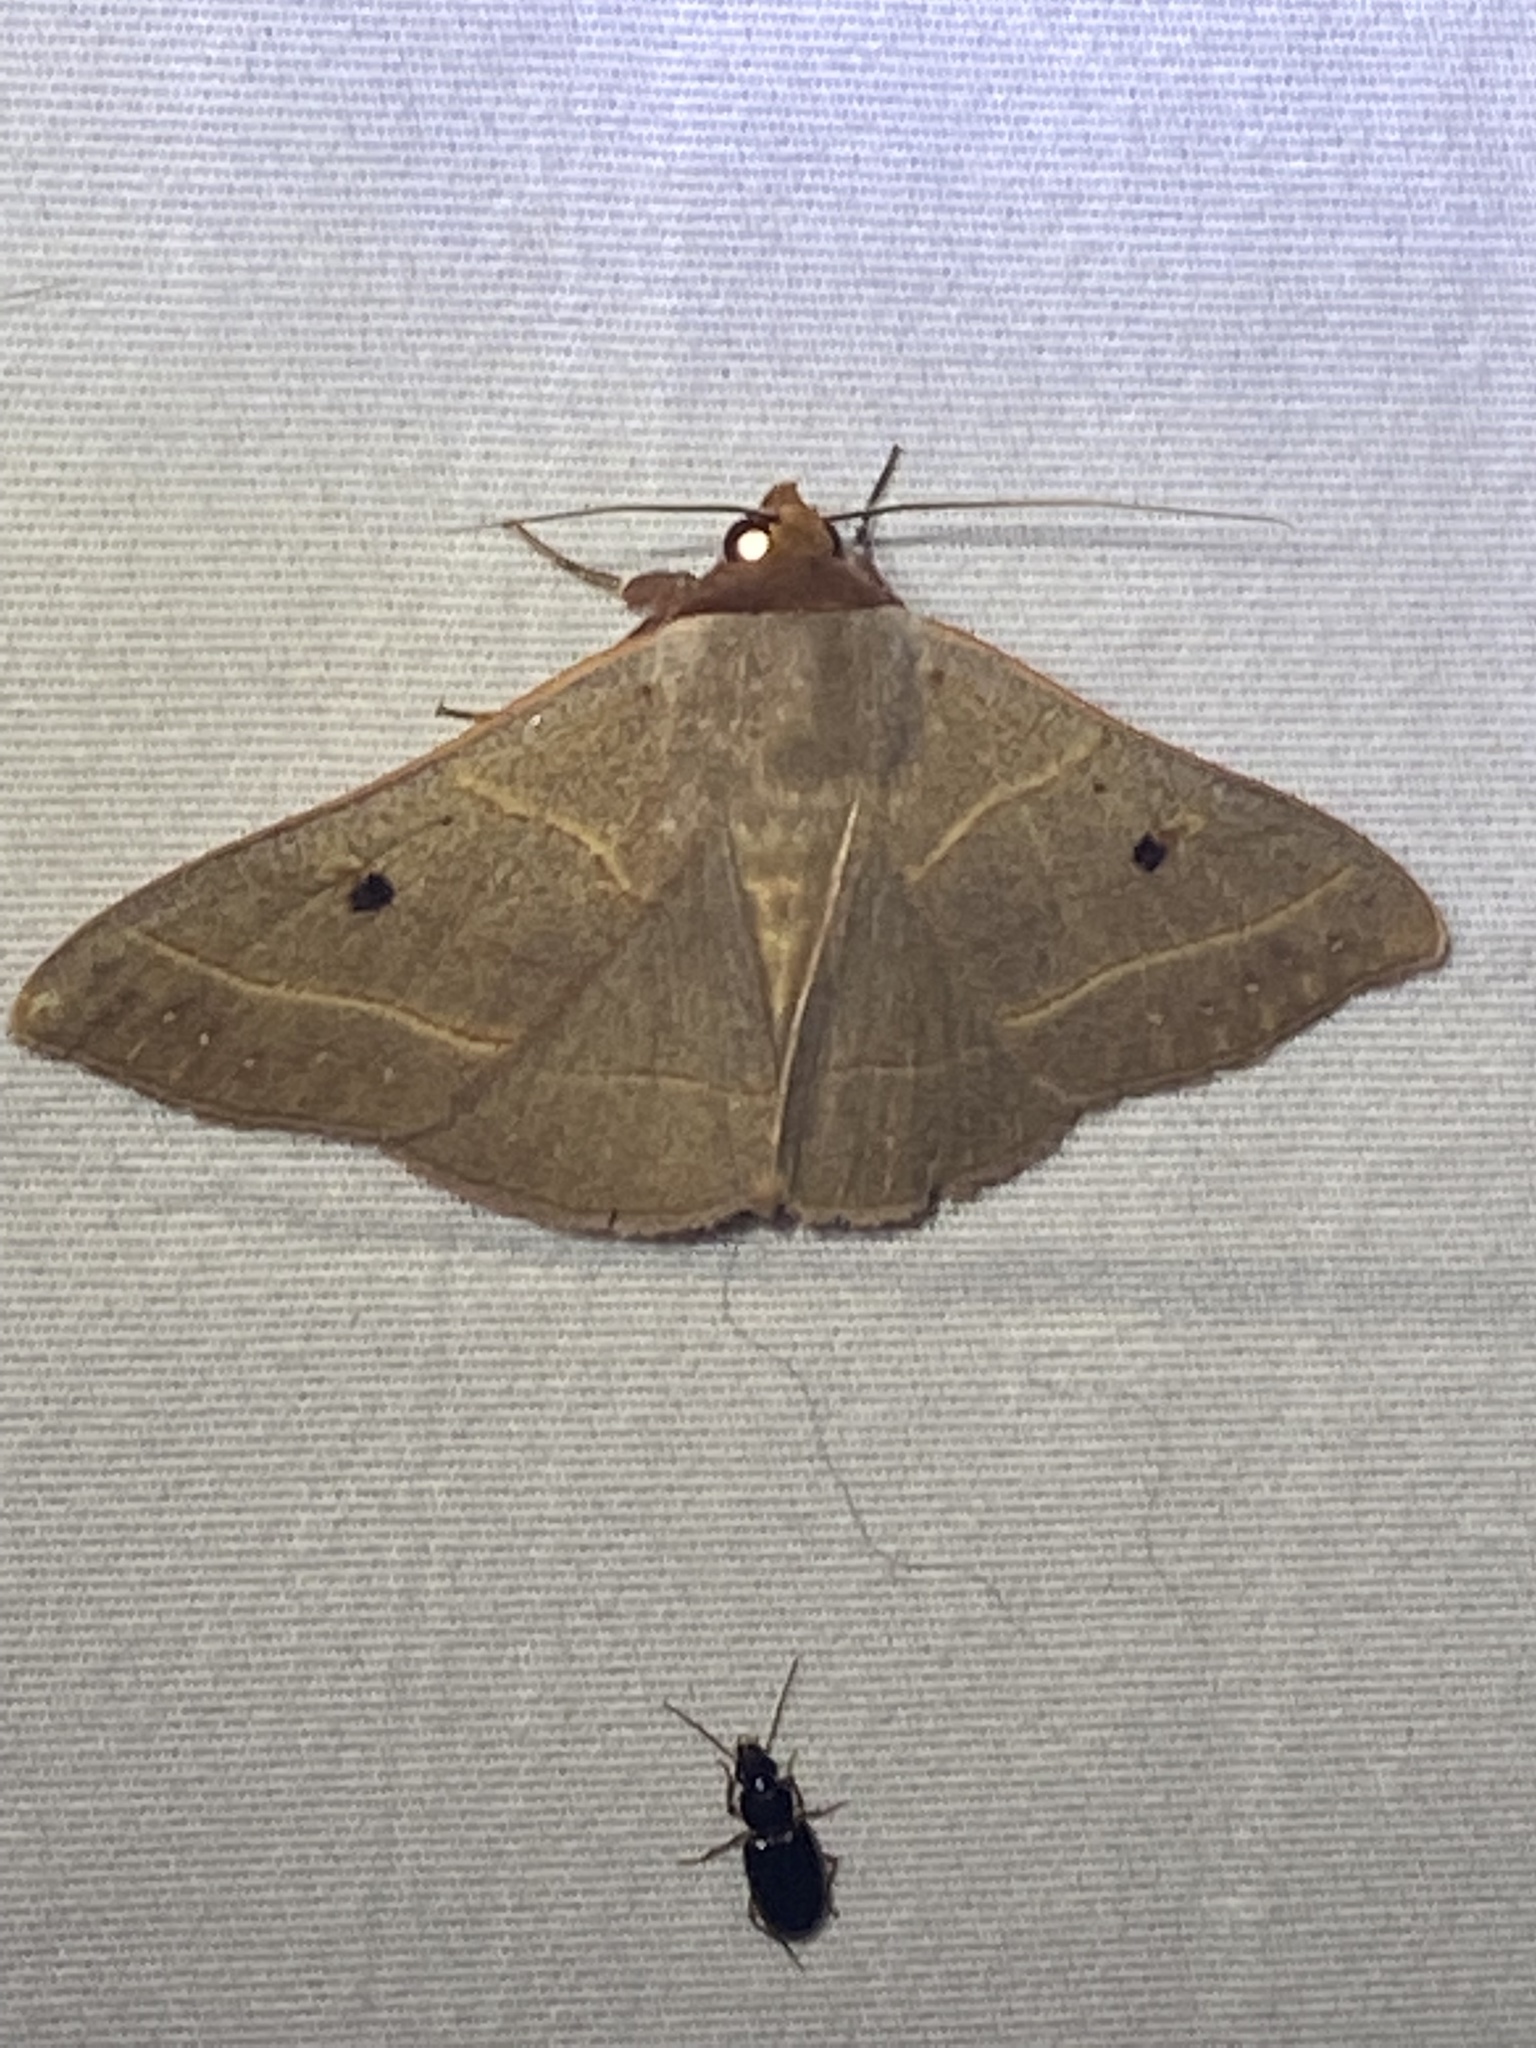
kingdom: Animalia
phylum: Arthropoda
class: Insecta
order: Lepidoptera
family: Erebidae
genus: Panopoda
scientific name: Panopoda rufimargo
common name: Red-lined panopoda moth
